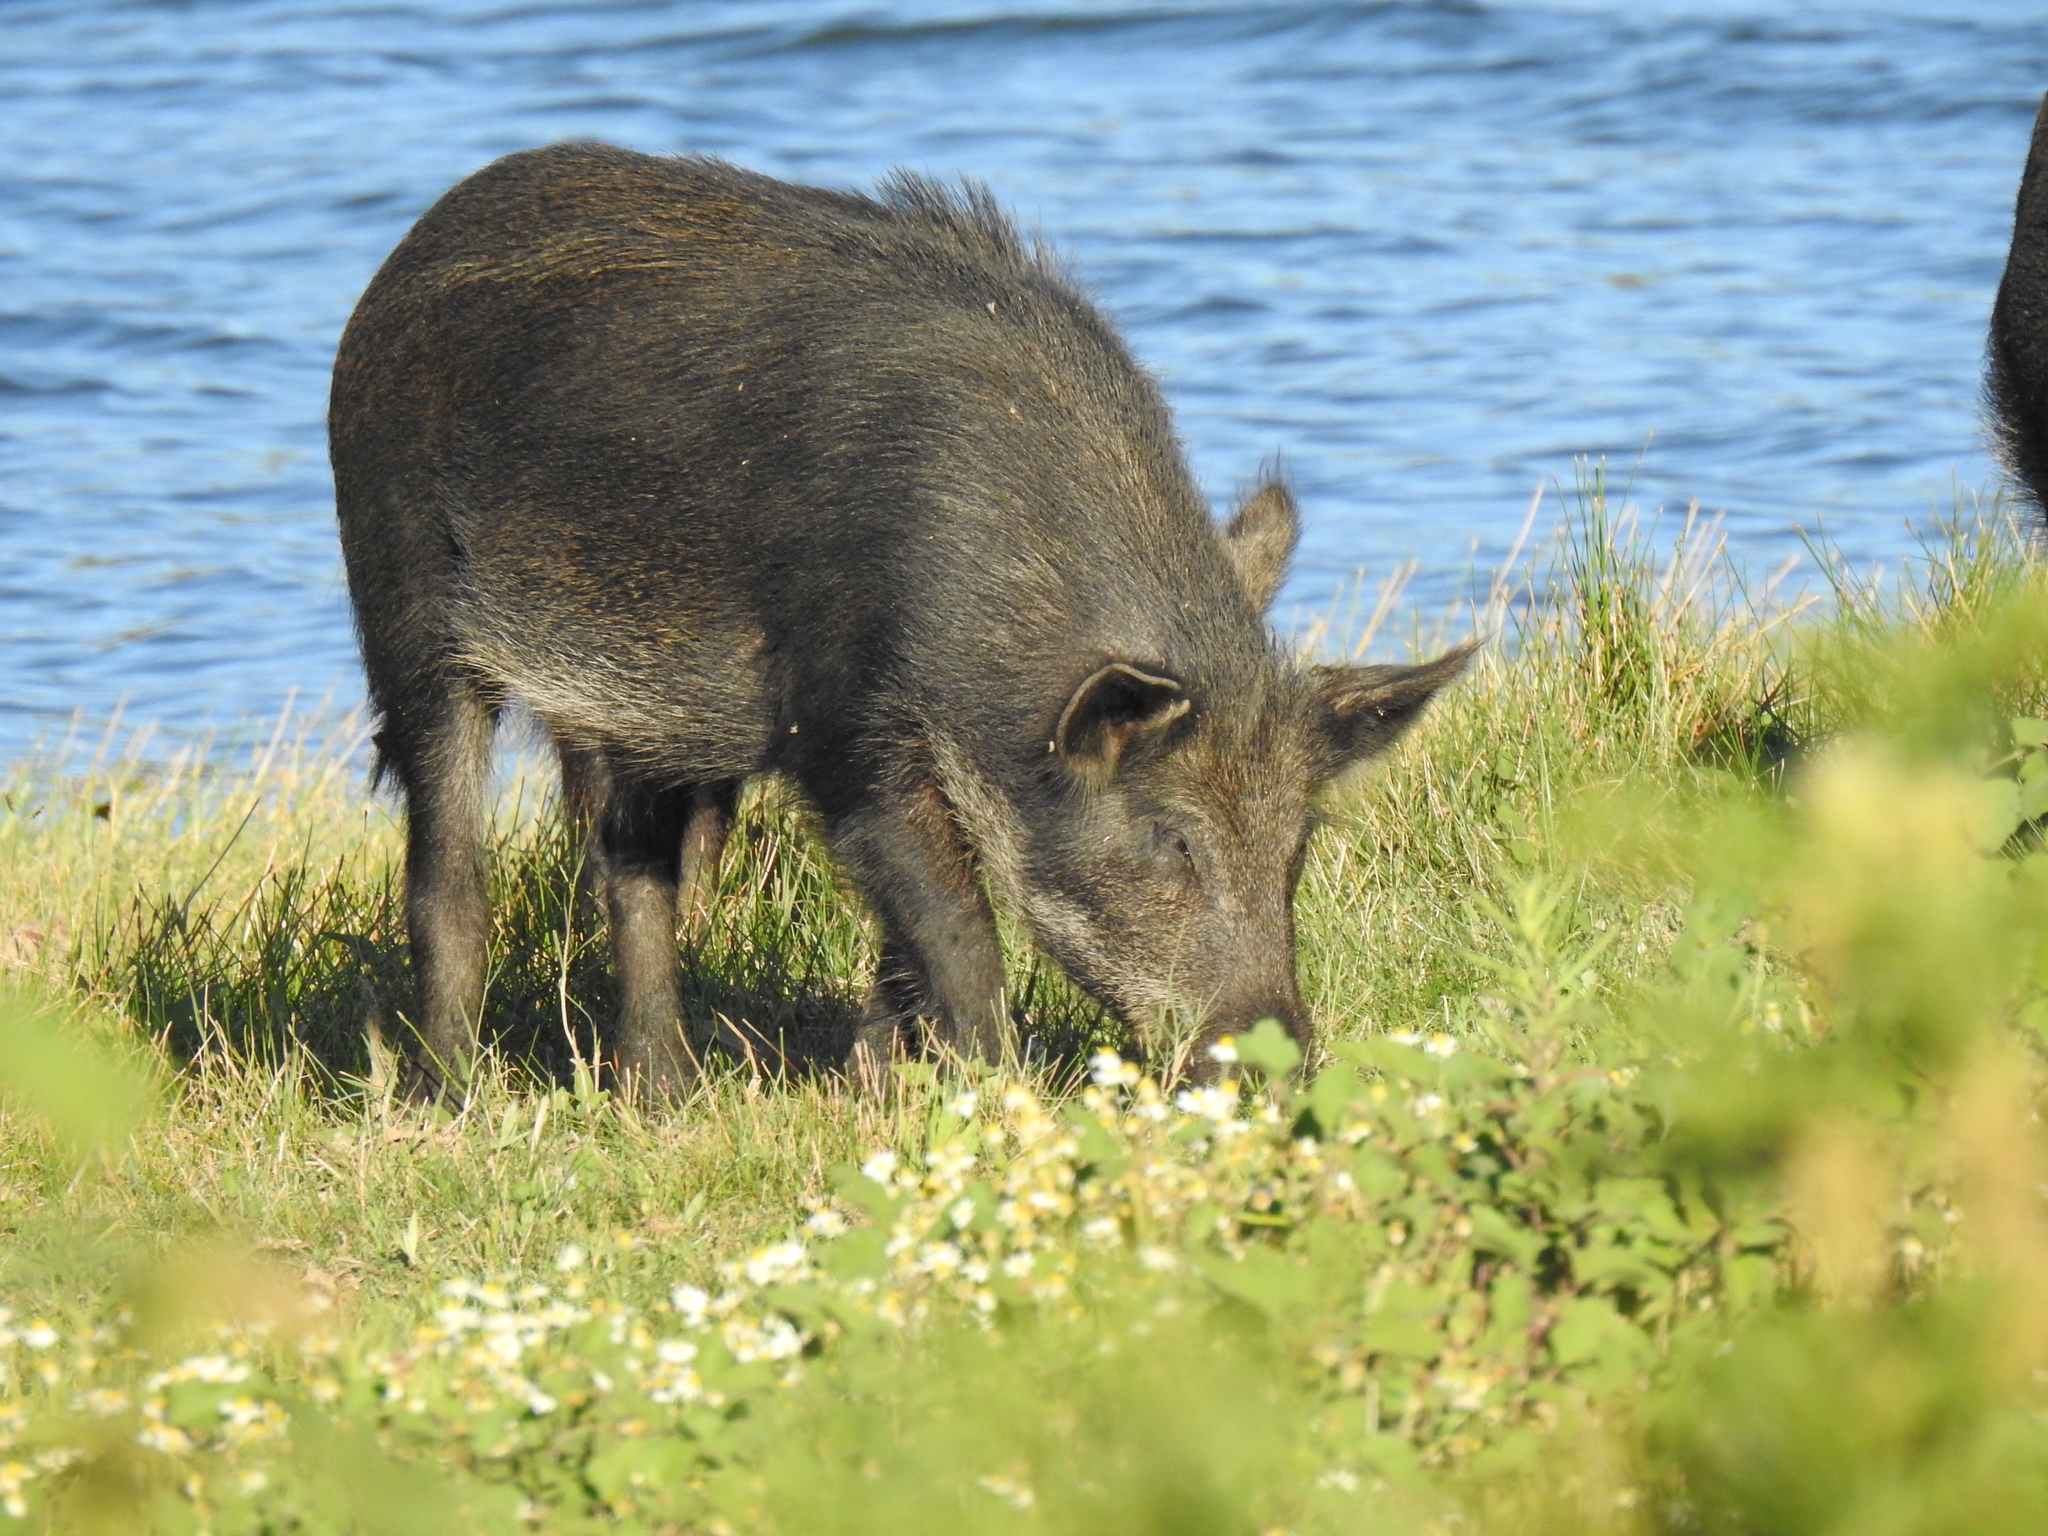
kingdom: Animalia
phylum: Chordata
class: Mammalia
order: Artiodactyla
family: Suidae
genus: Sus
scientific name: Sus scrofa
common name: Wild boar
